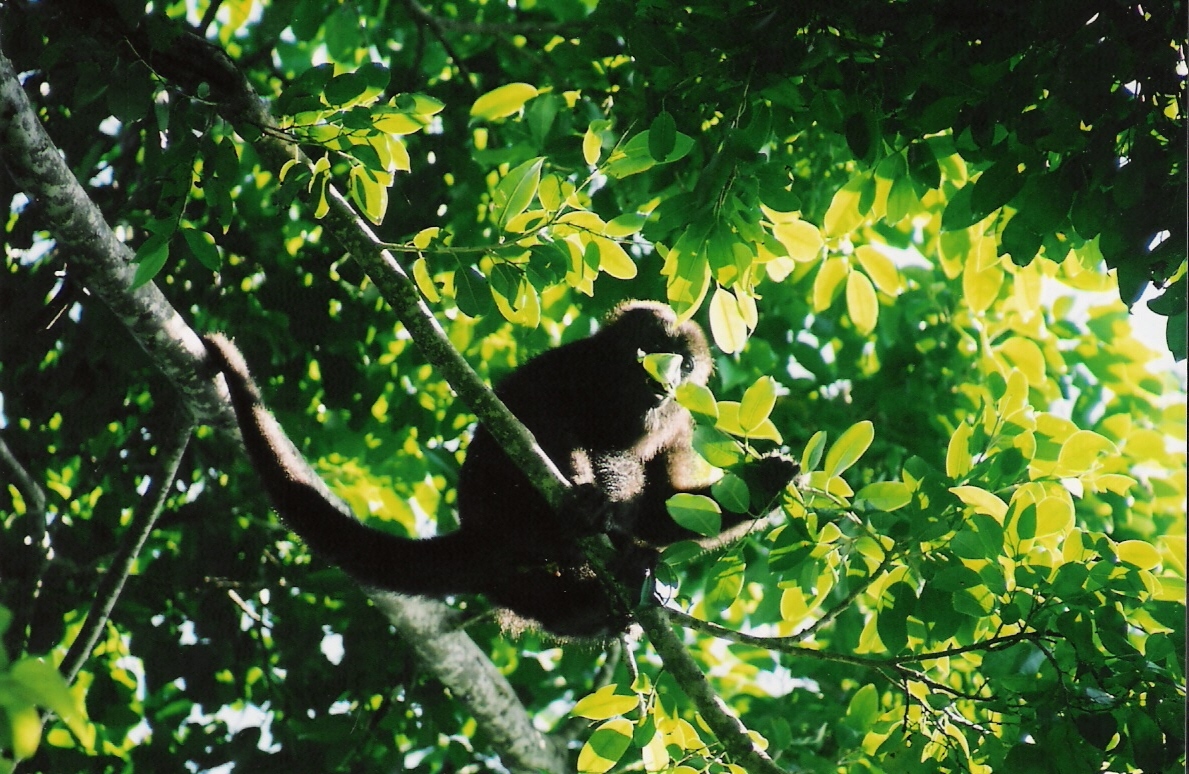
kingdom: Animalia
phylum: Chordata
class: Mammalia
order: Primates
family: Atelidae
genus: Alouatta
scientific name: Alouatta pigra
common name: Guatemalan black howler
